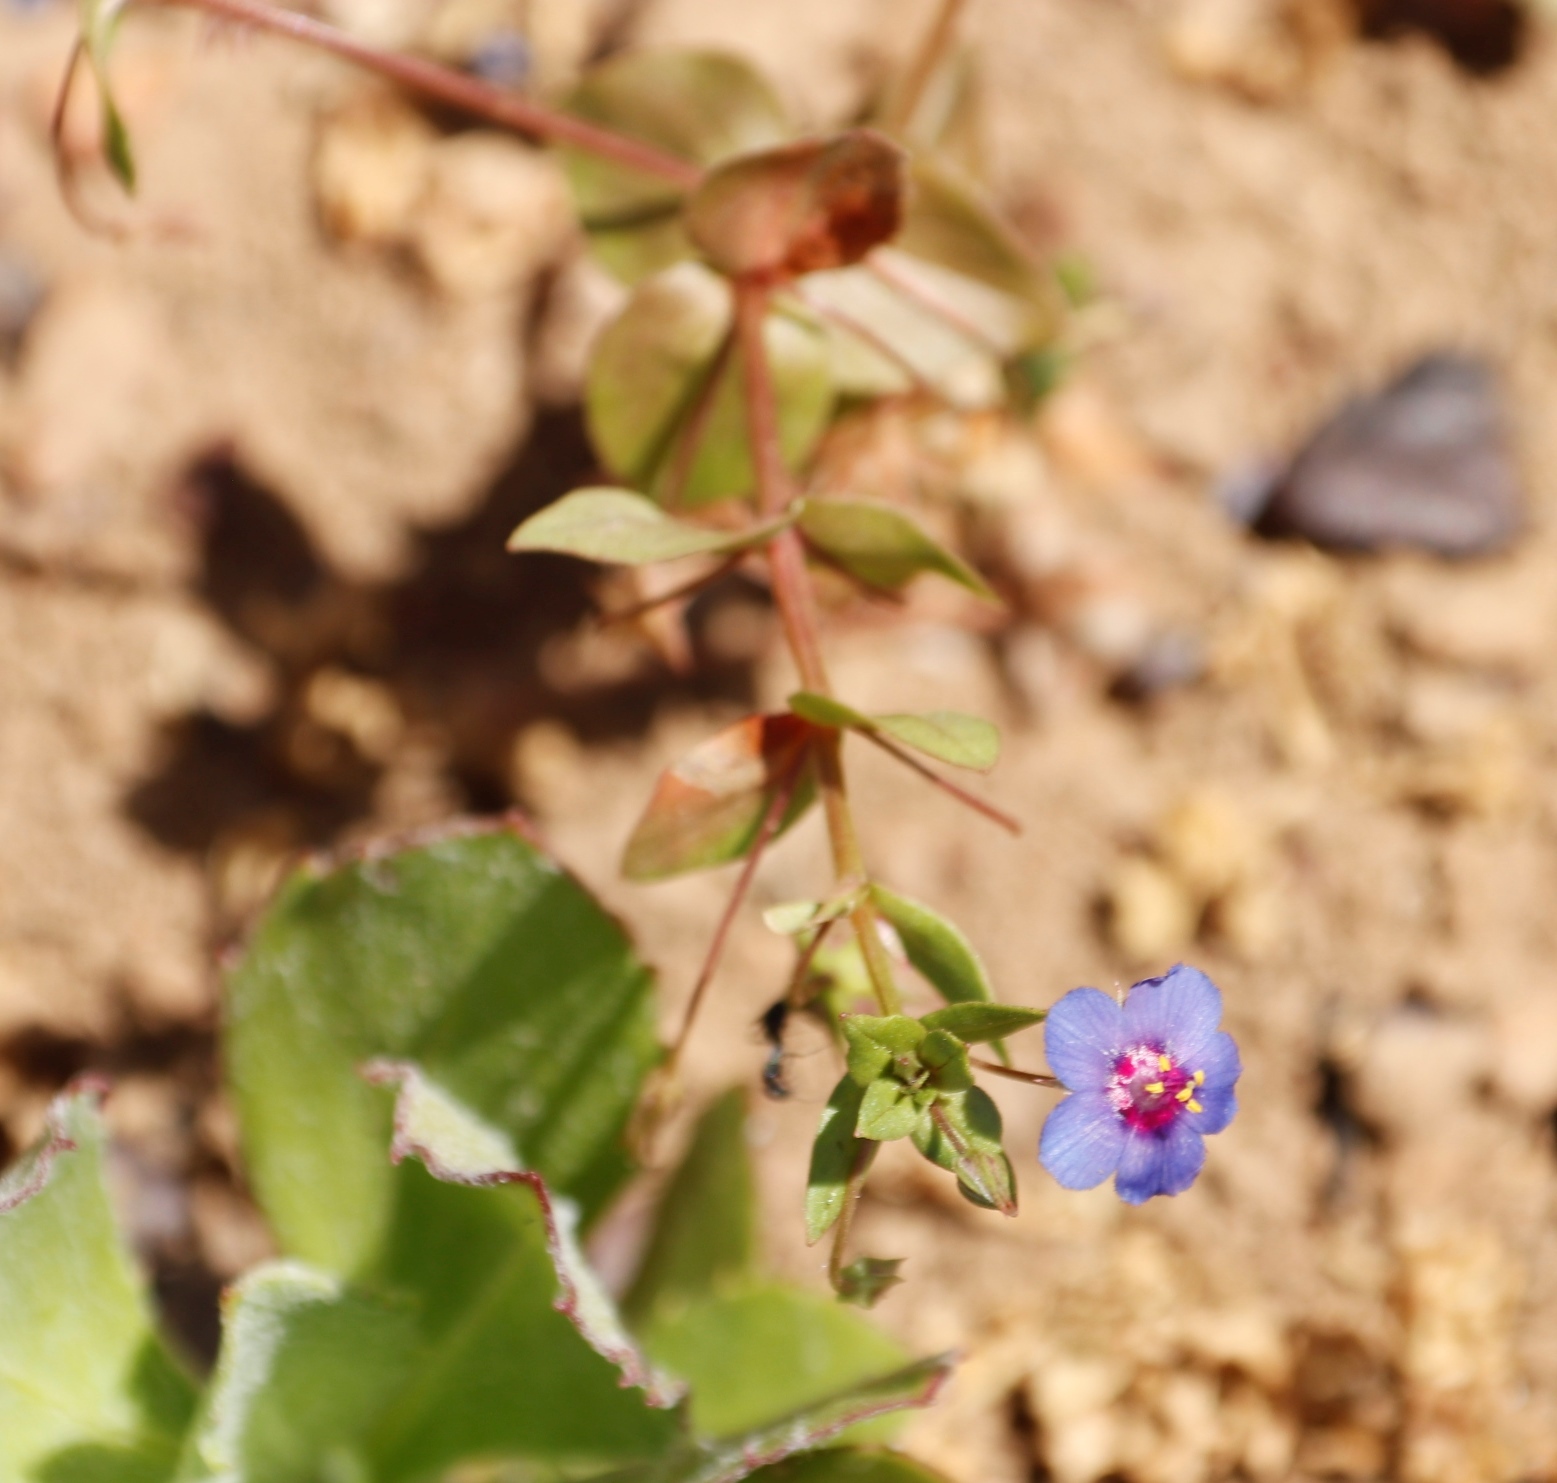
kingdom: Plantae
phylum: Tracheophyta
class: Magnoliopsida
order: Ericales
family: Primulaceae
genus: Lysimachia
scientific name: Lysimachia loeflingii
